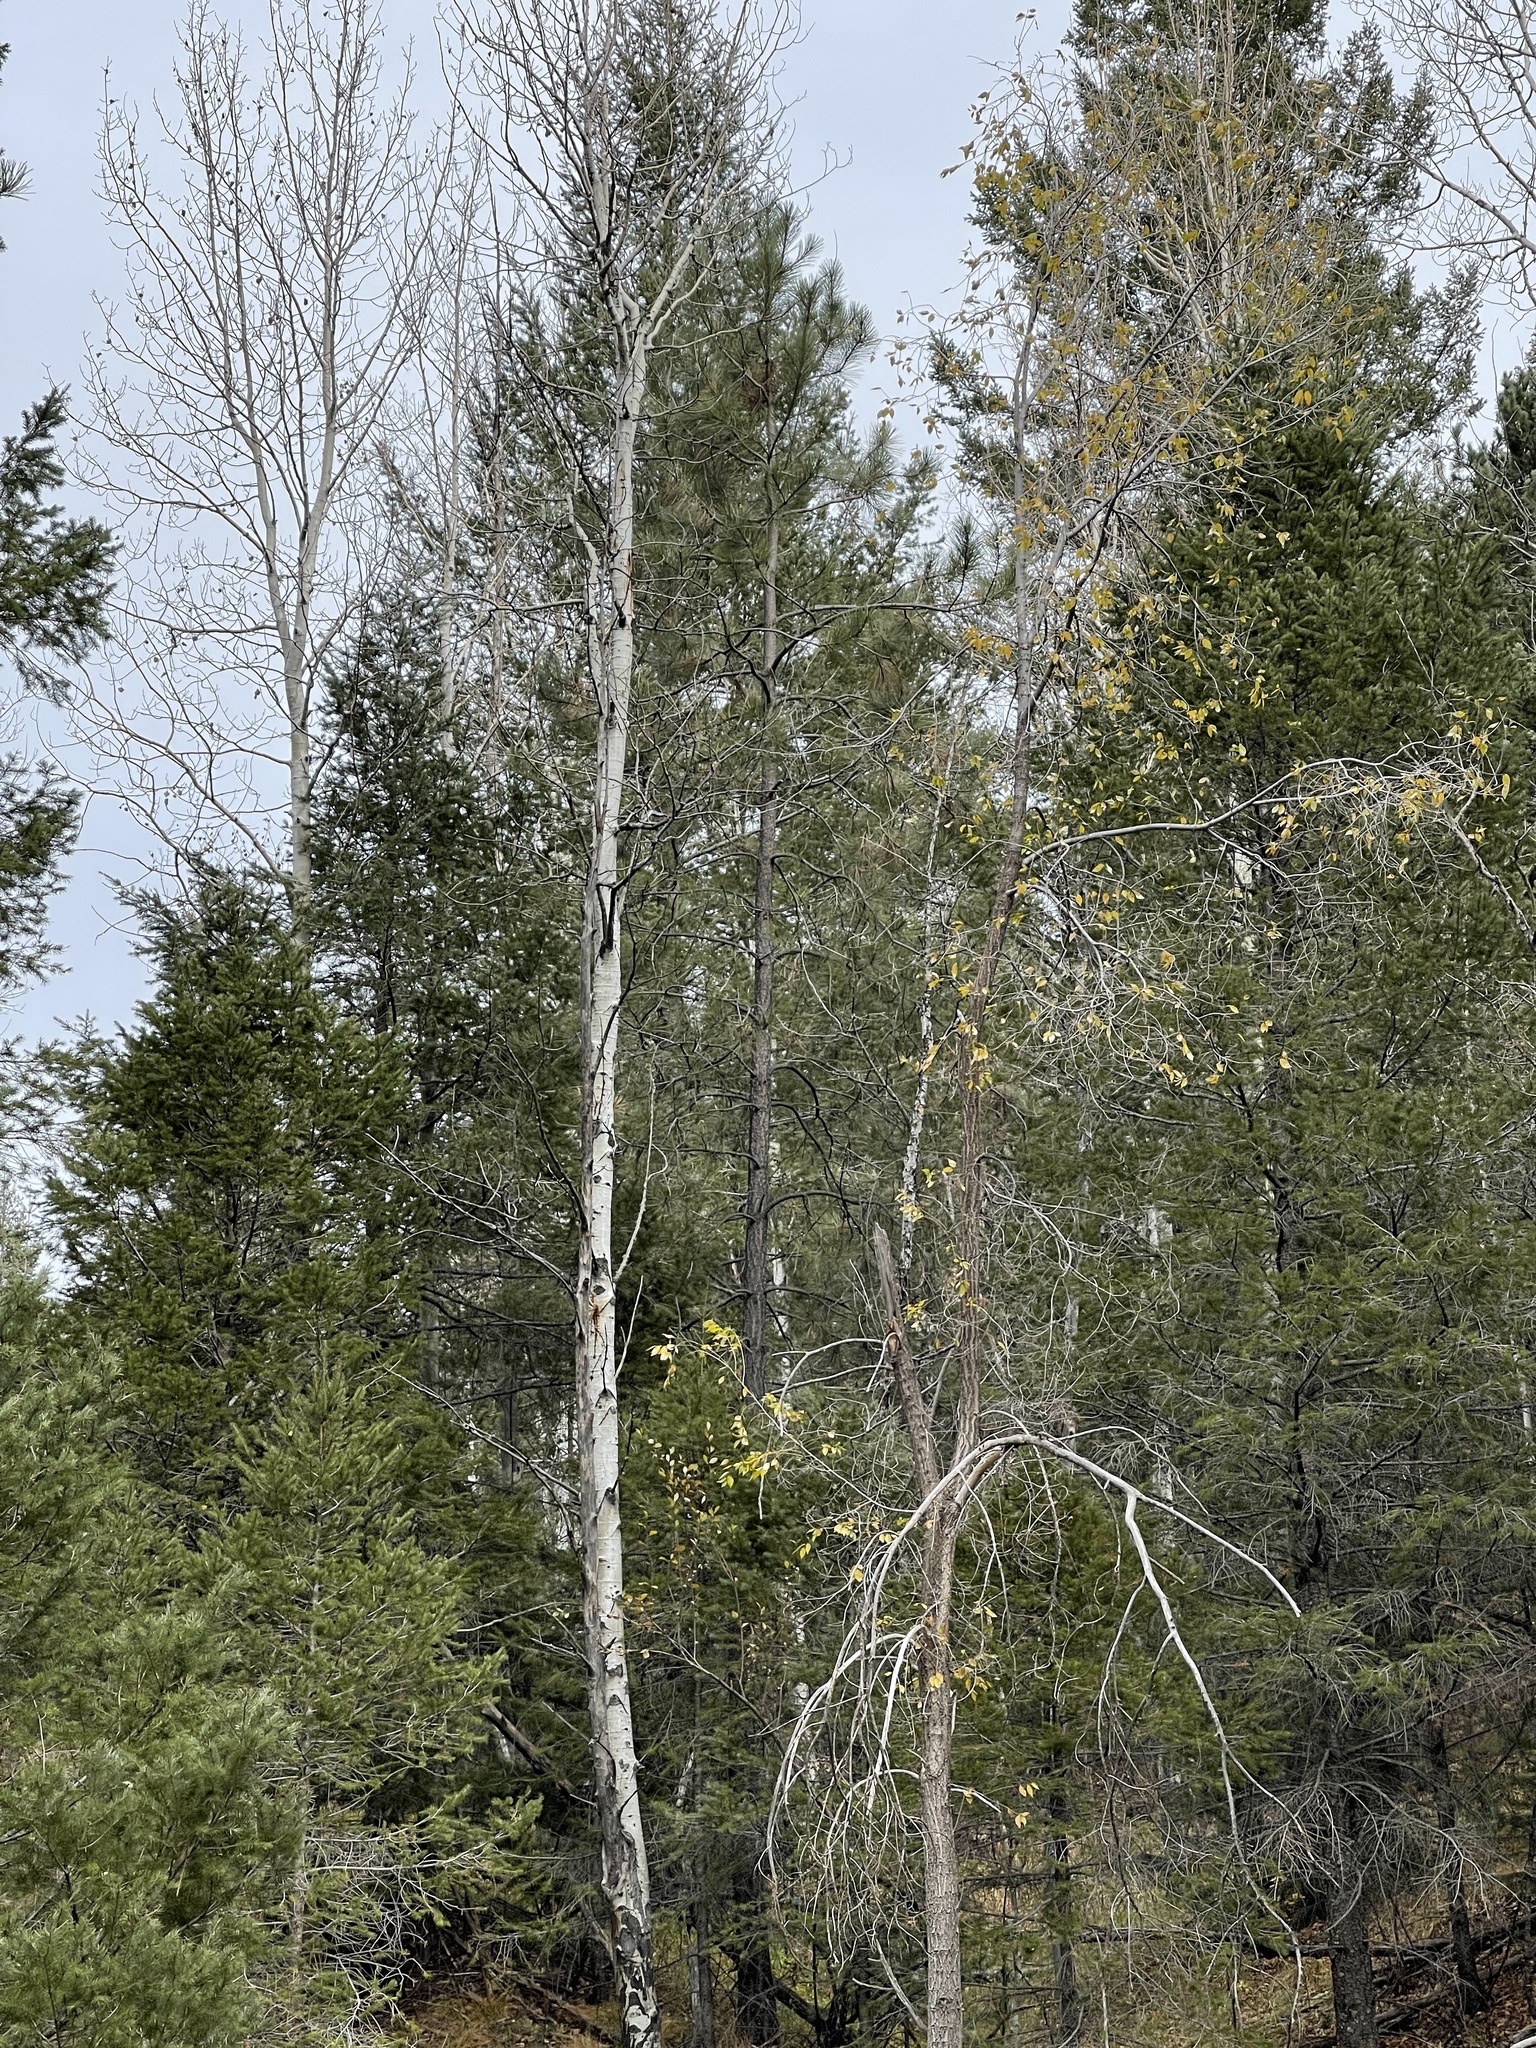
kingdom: Plantae
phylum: Tracheophyta
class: Magnoliopsida
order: Malpighiales
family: Salicaceae
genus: Populus
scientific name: Populus tremuloides
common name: Quaking aspen
